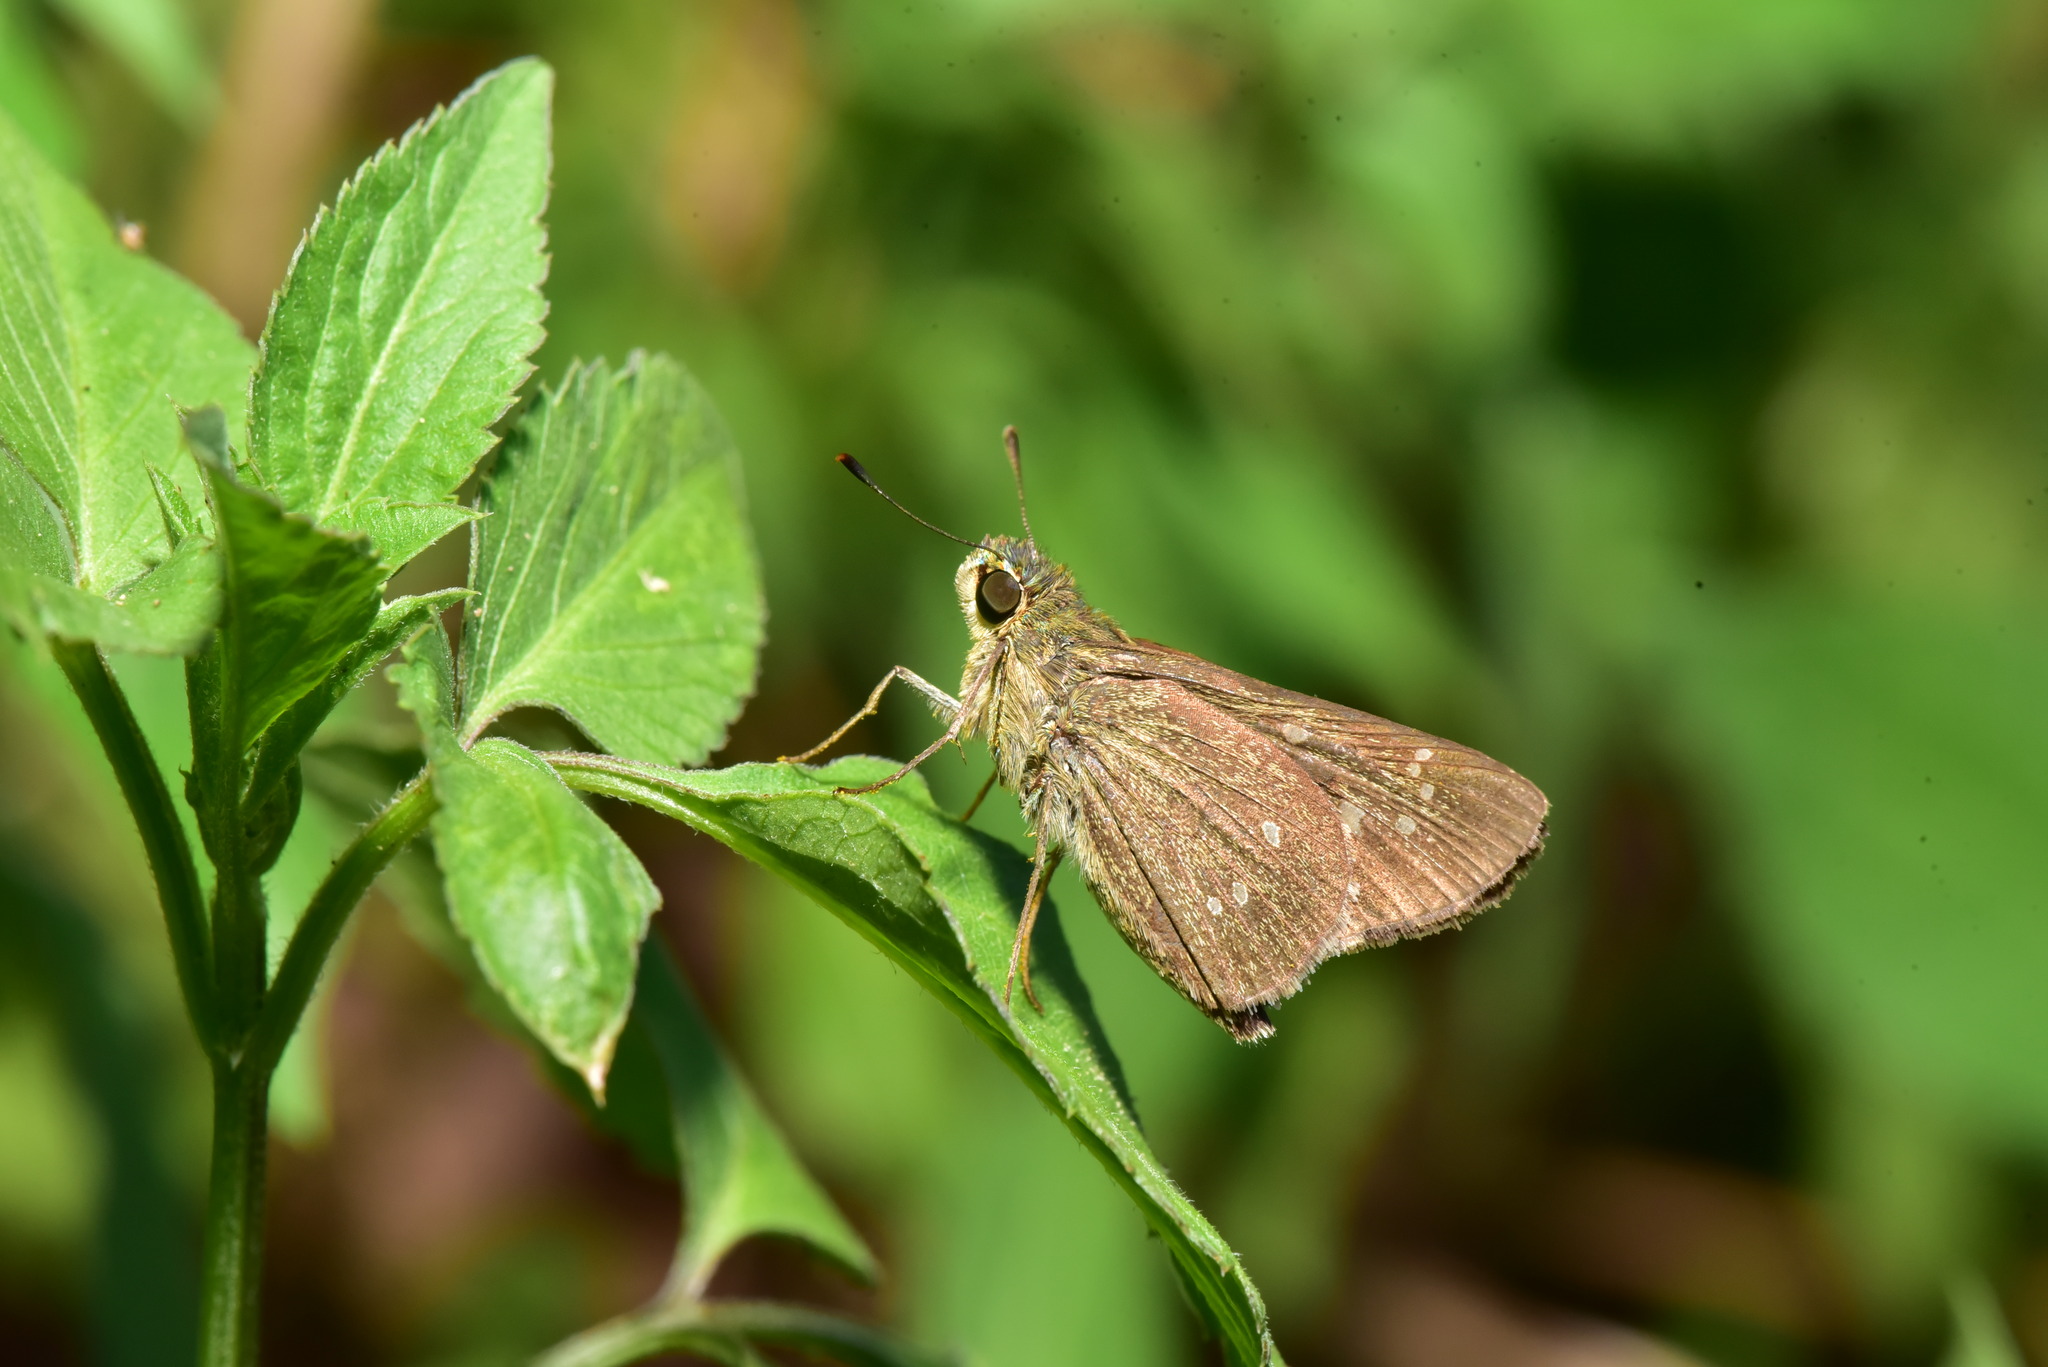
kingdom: Animalia
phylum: Arthropoda
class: Insecta
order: Lepidoptera
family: Hesperiidae
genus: Borbo
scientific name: Borbo cinnara
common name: Formosan swift
